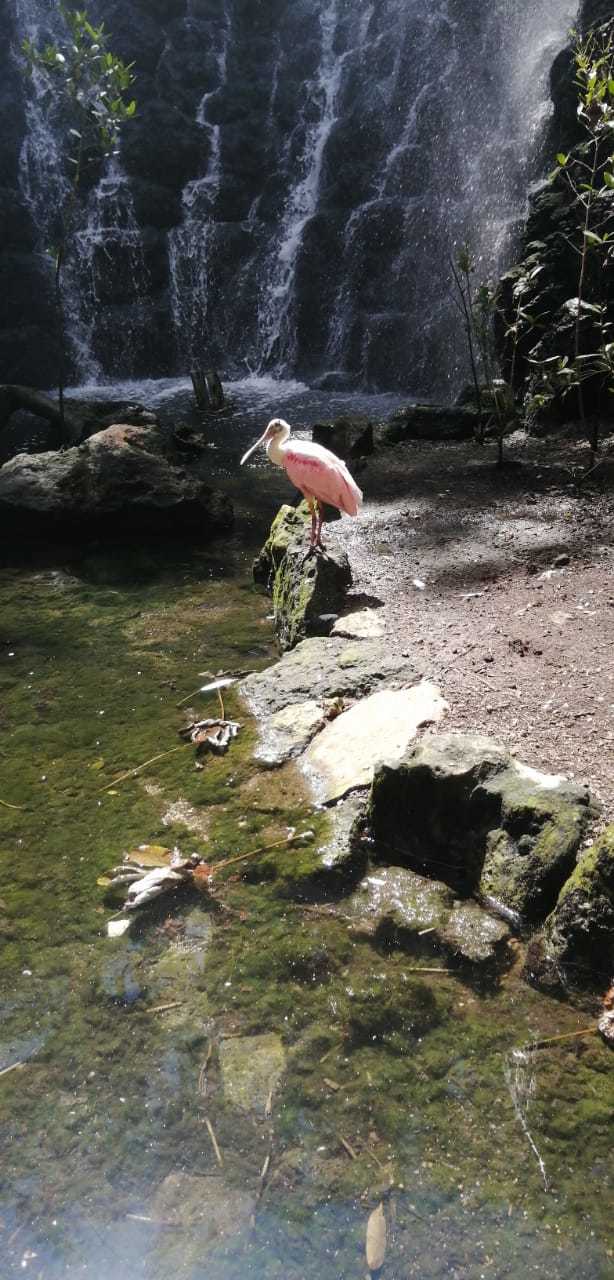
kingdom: Animalia
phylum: Chordata
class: Aves
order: Pelecaniformes
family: Threskiornithidae
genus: Platalea
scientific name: Platalea ajaja
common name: Roseate spoonbill
